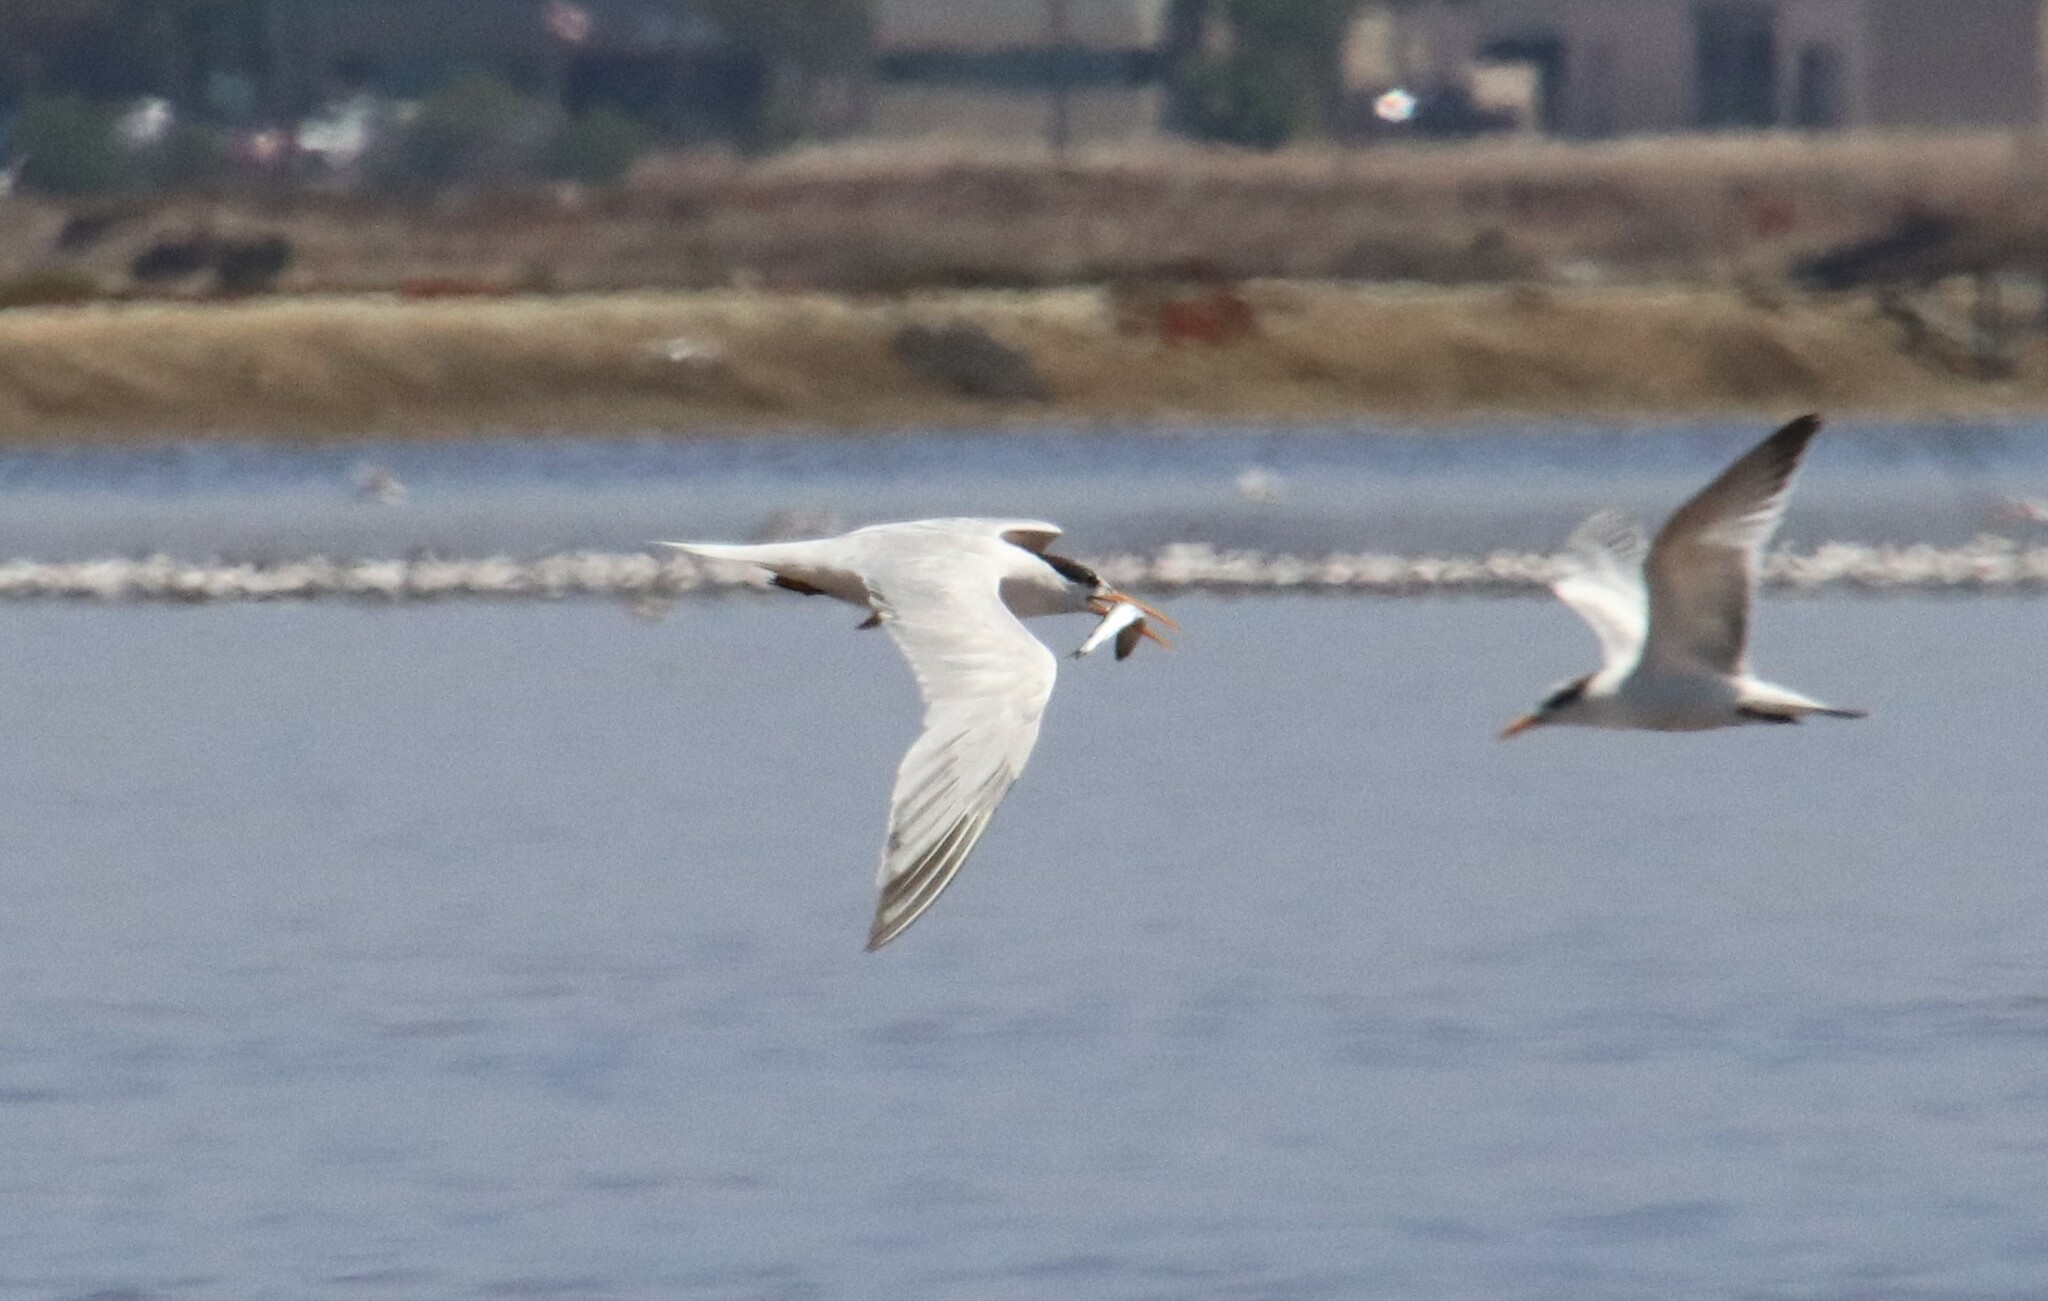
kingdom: Animalia
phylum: Chordata
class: Aves
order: Charadriiformes
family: Laridae
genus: Thalasseus
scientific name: Thalasseus elegans
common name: Elegant tern
